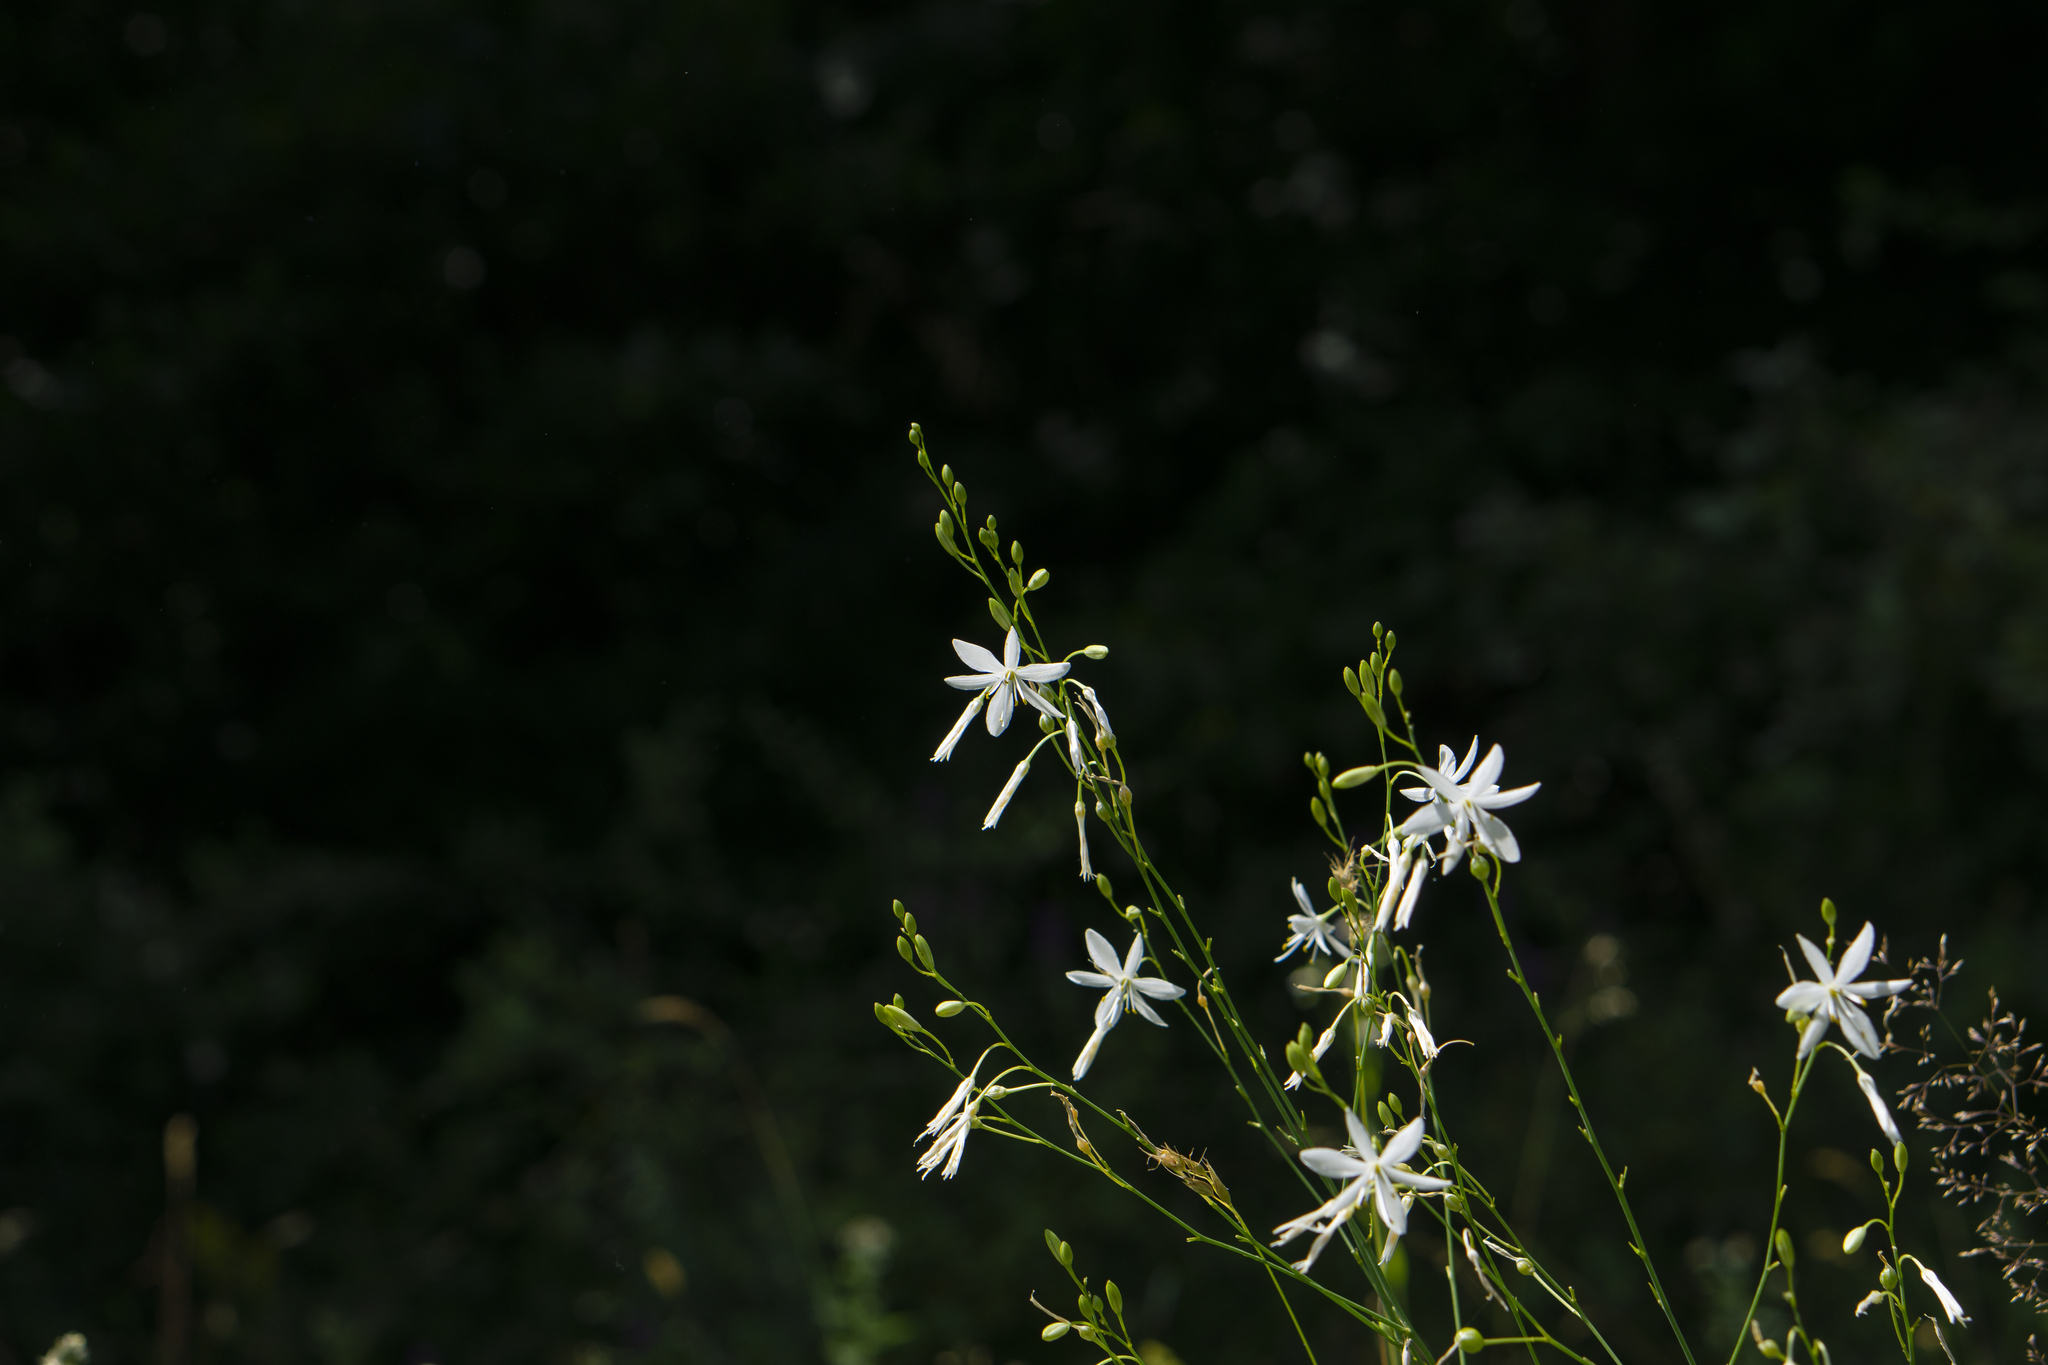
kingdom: Plantae
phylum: Tracheophyta
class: Liliopsida
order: Asparagales
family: Asparagaceae
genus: Anthericum
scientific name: Anthericum ramosum
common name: Branched st. bernard's-lily
